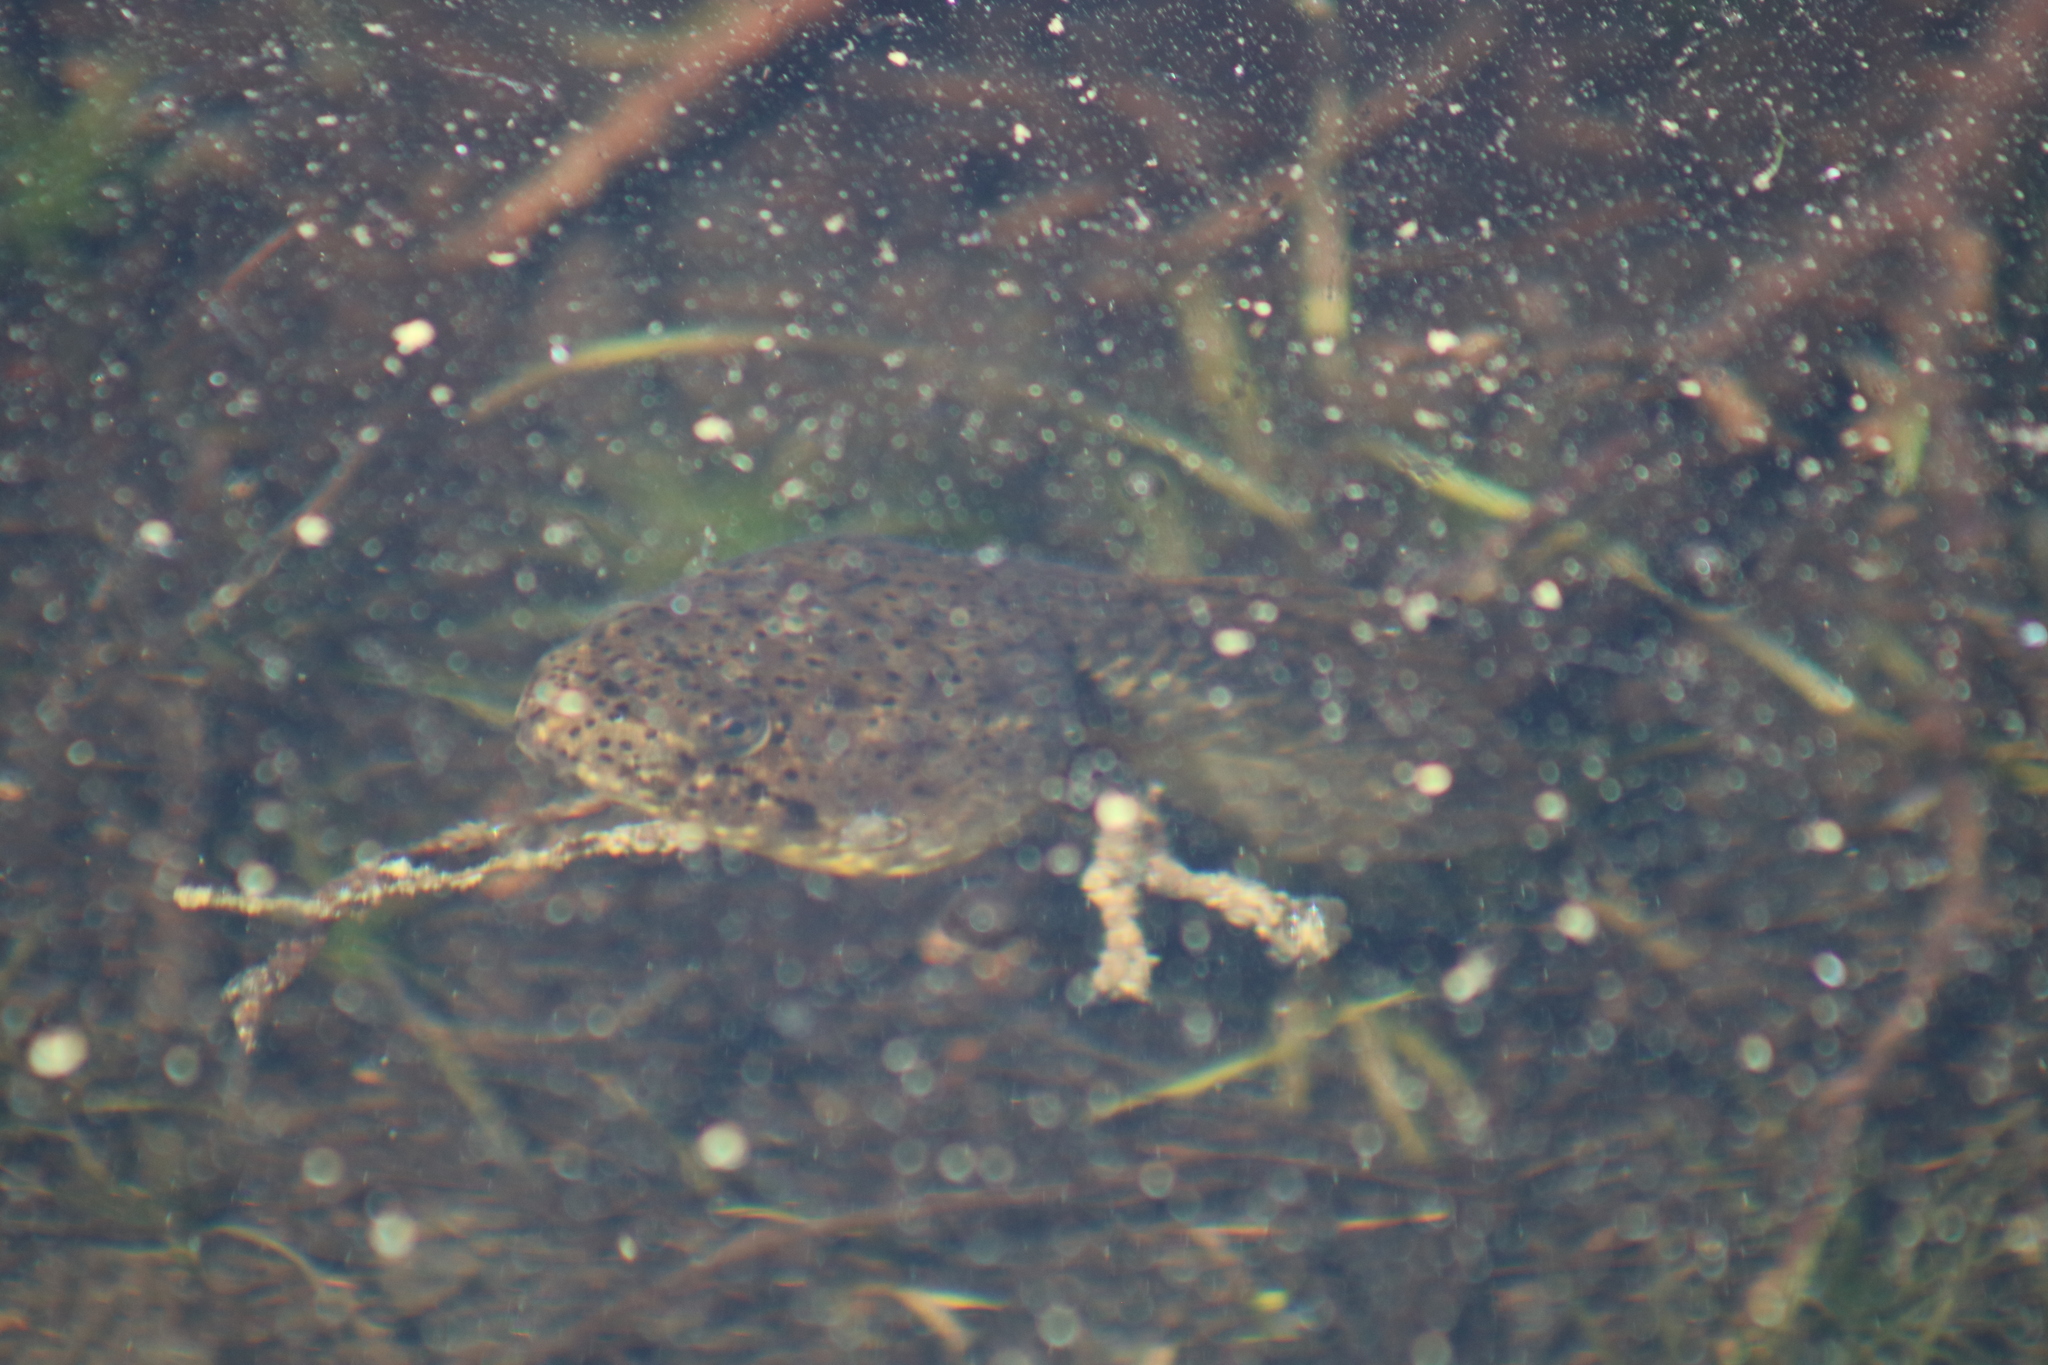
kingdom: Animalia
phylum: Chordata
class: Amphibia
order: Anura
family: Ranidae
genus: Lithobates
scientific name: Lithobates catesbeianus
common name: American bullfrog
